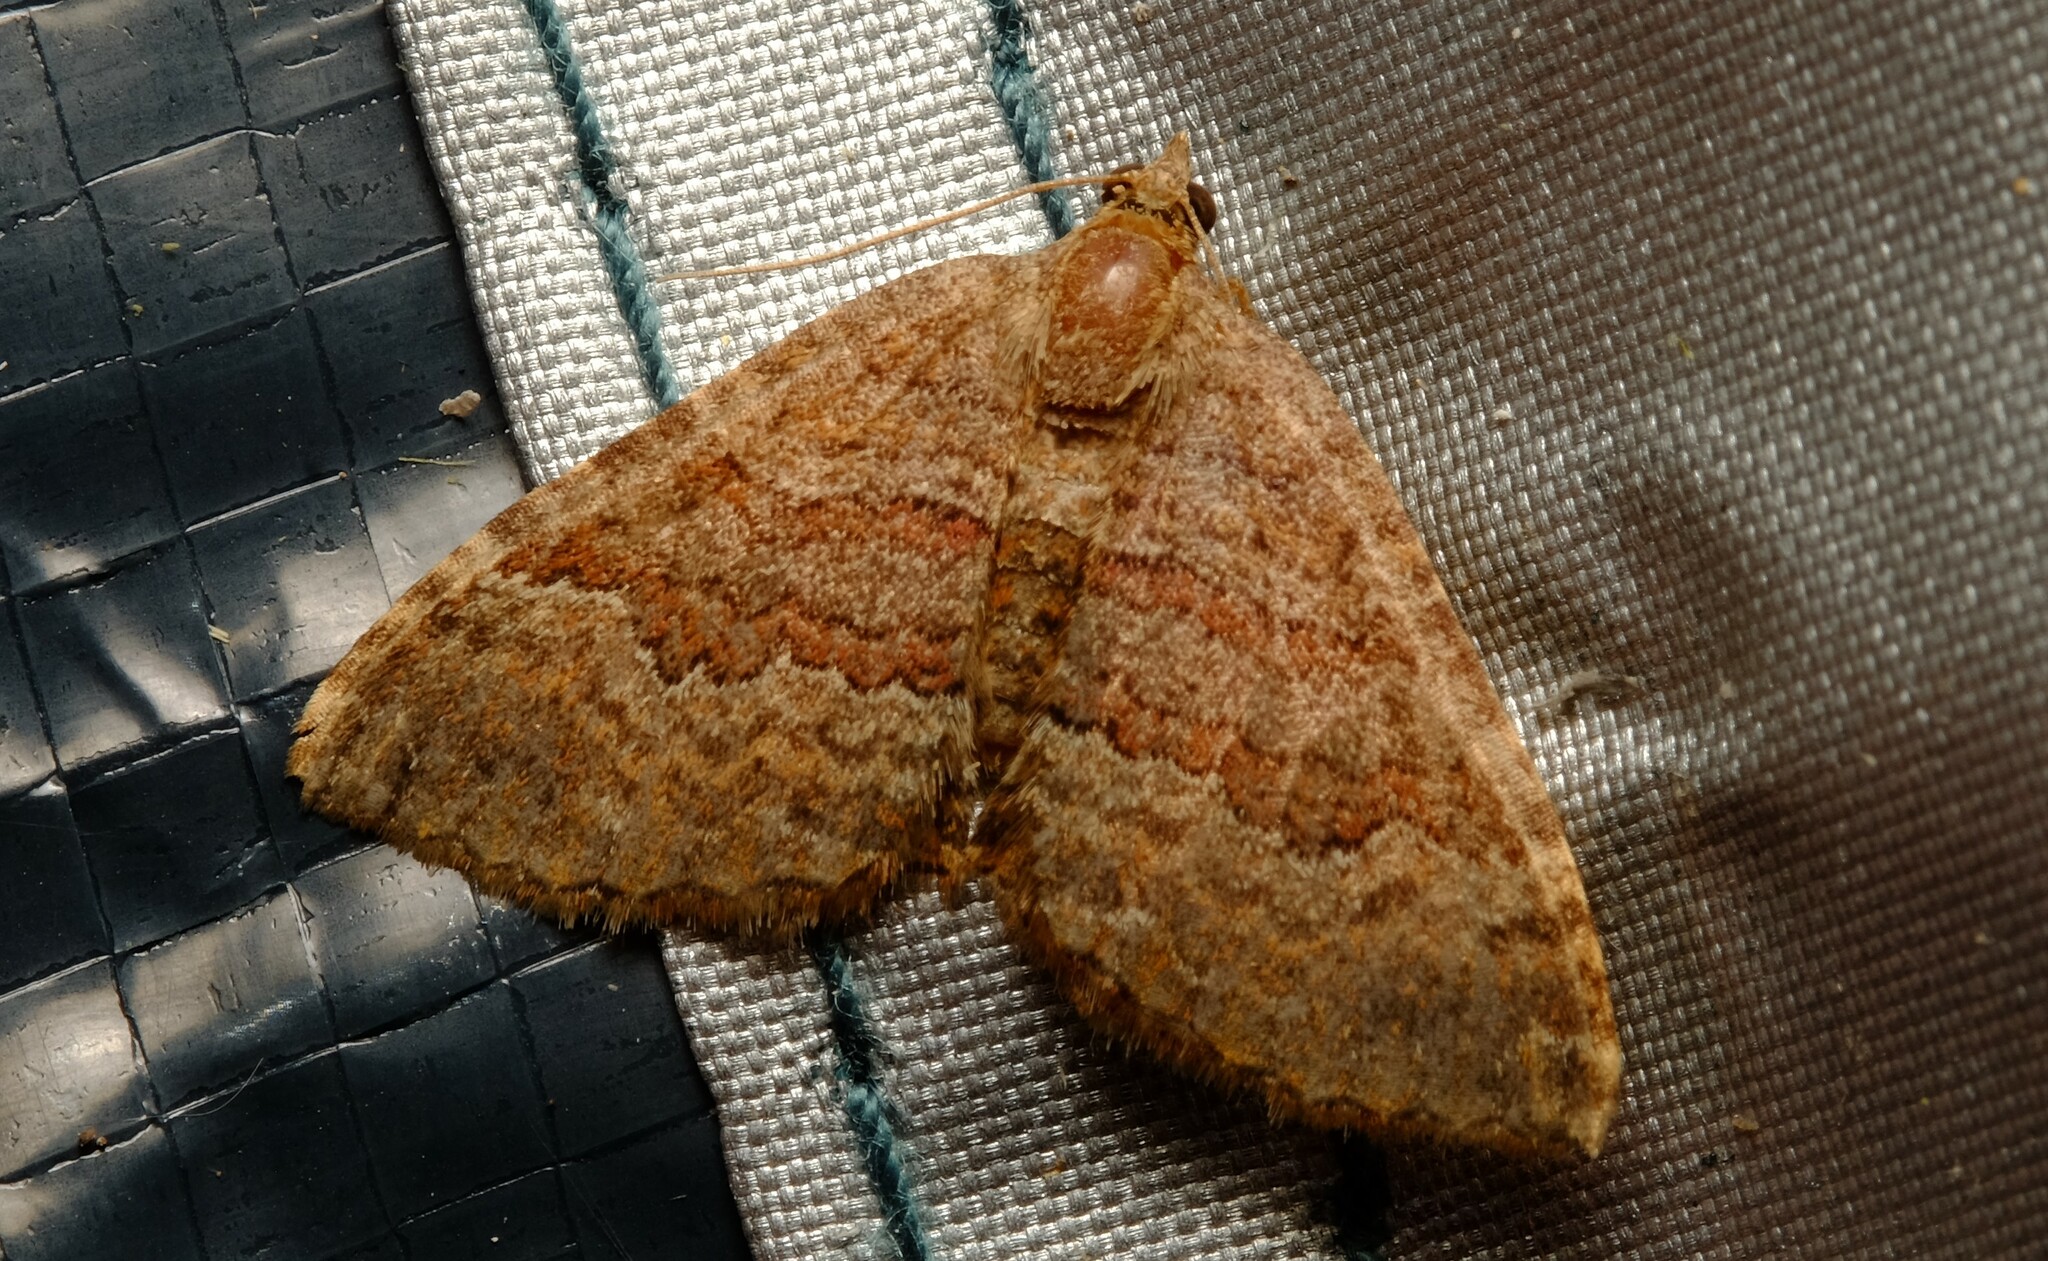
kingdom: Animalia
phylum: Arthropoda
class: Insecta
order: Lepidoptera
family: Geometridae
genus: Chrysolarentia
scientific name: Chrysolarentia bichromata
